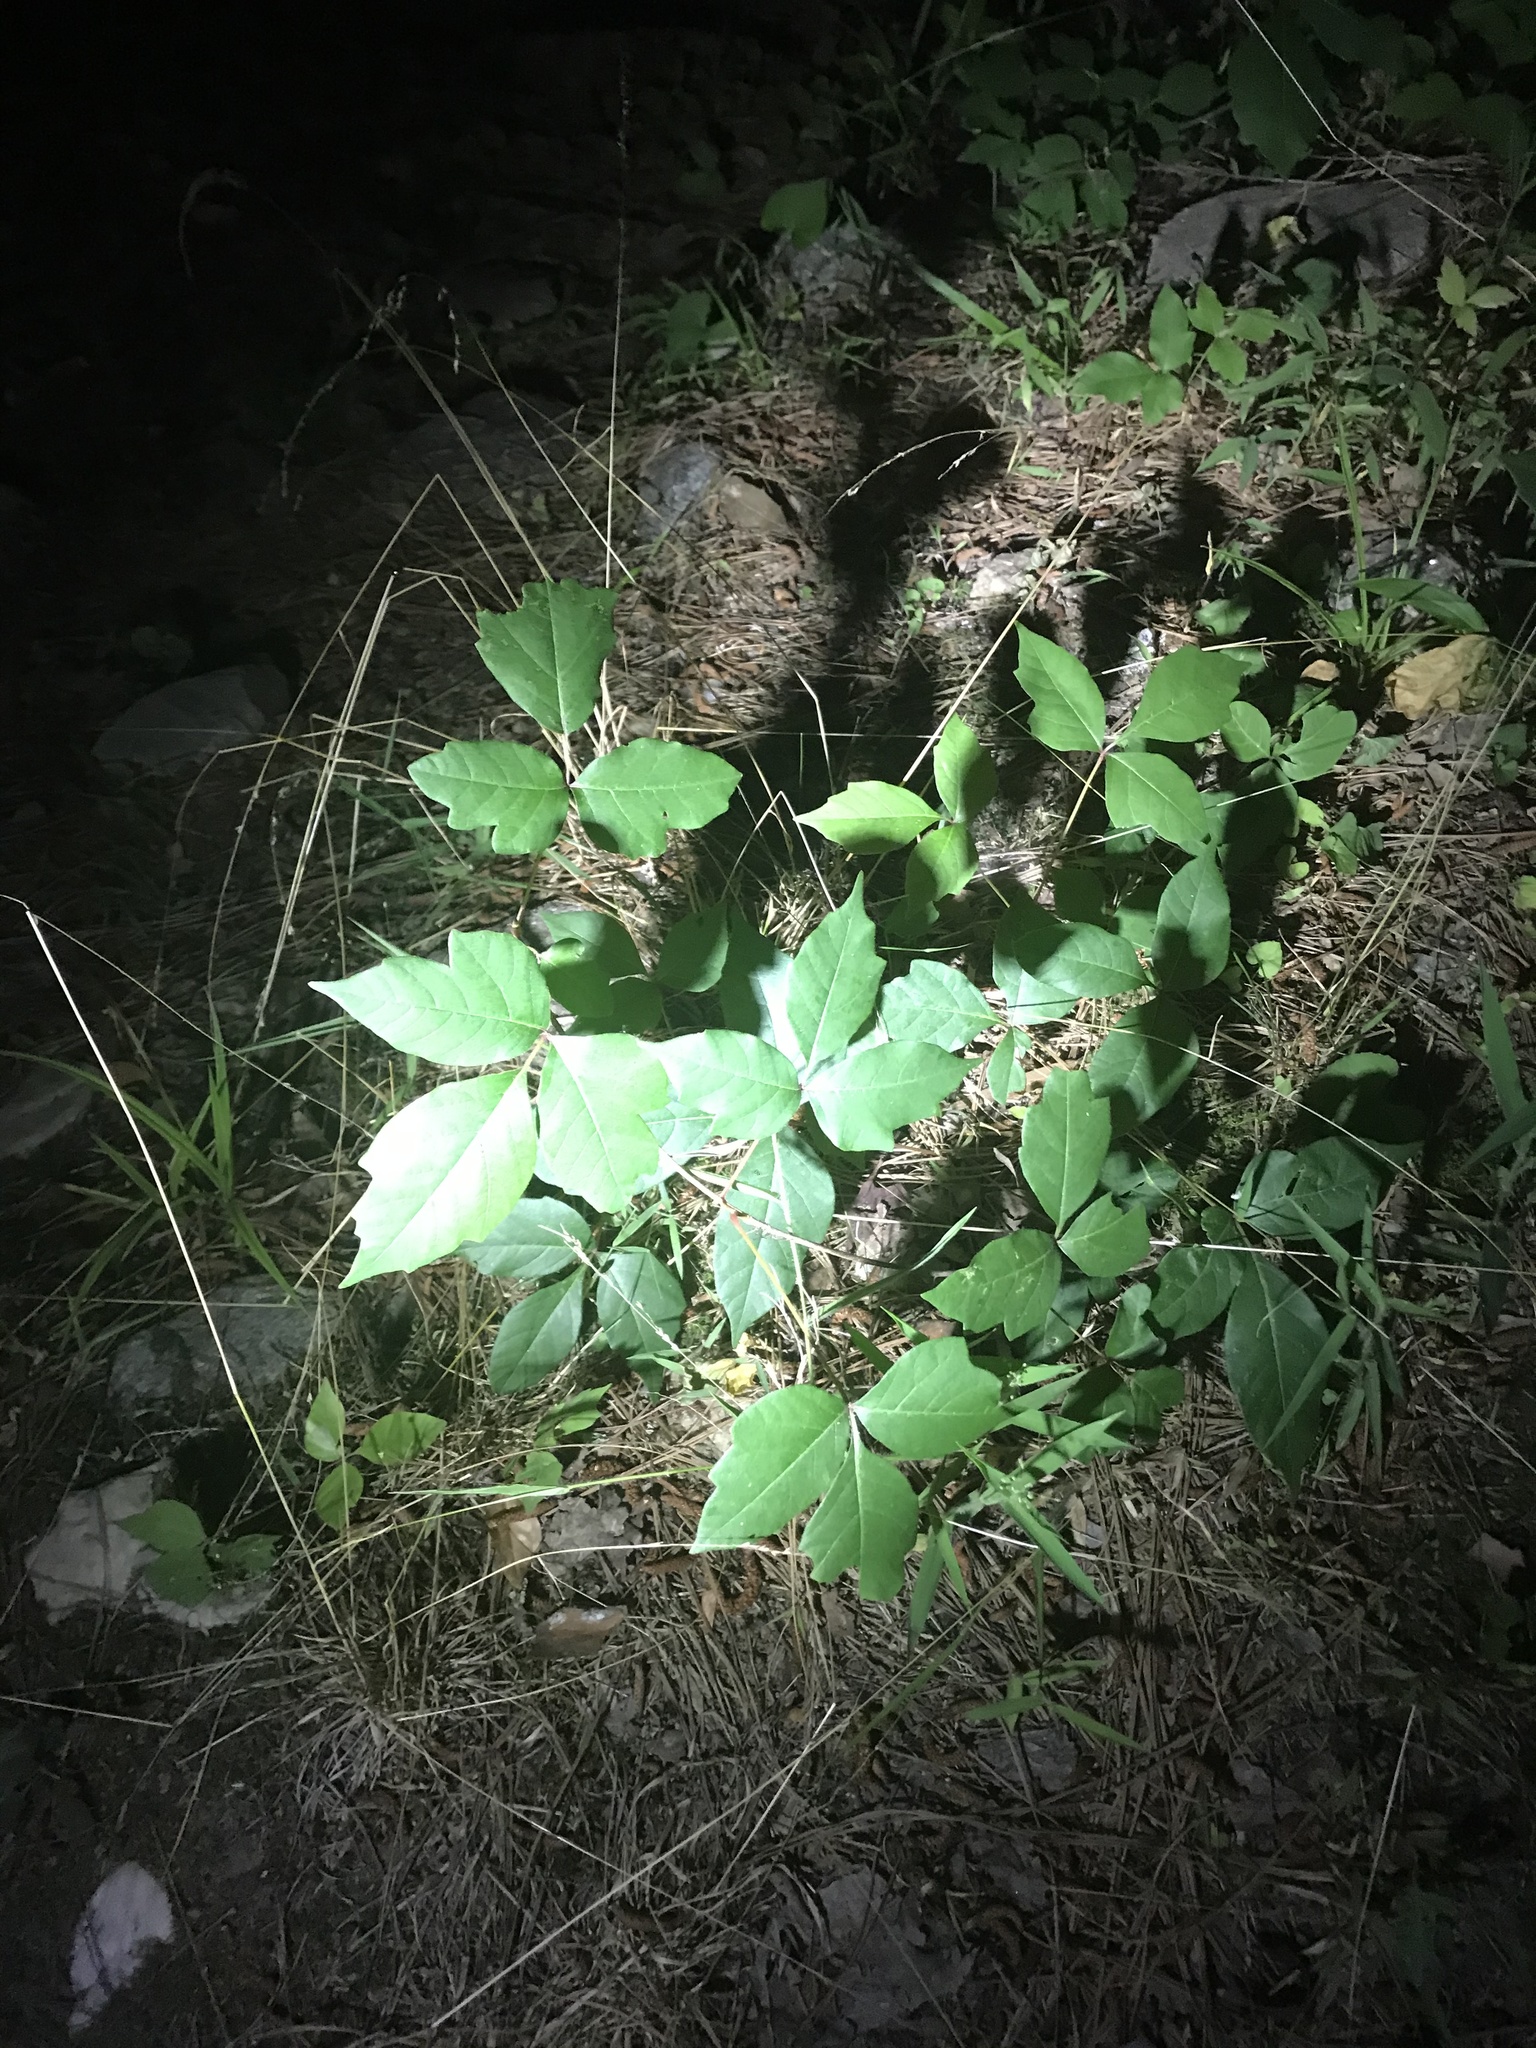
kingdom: Plantae
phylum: Tracheophyta
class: Magnoliopsida
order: Sapindales
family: Anacardiaceae
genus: Toxicodendron
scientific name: Toxicodendron radicans
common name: Poison ivy
